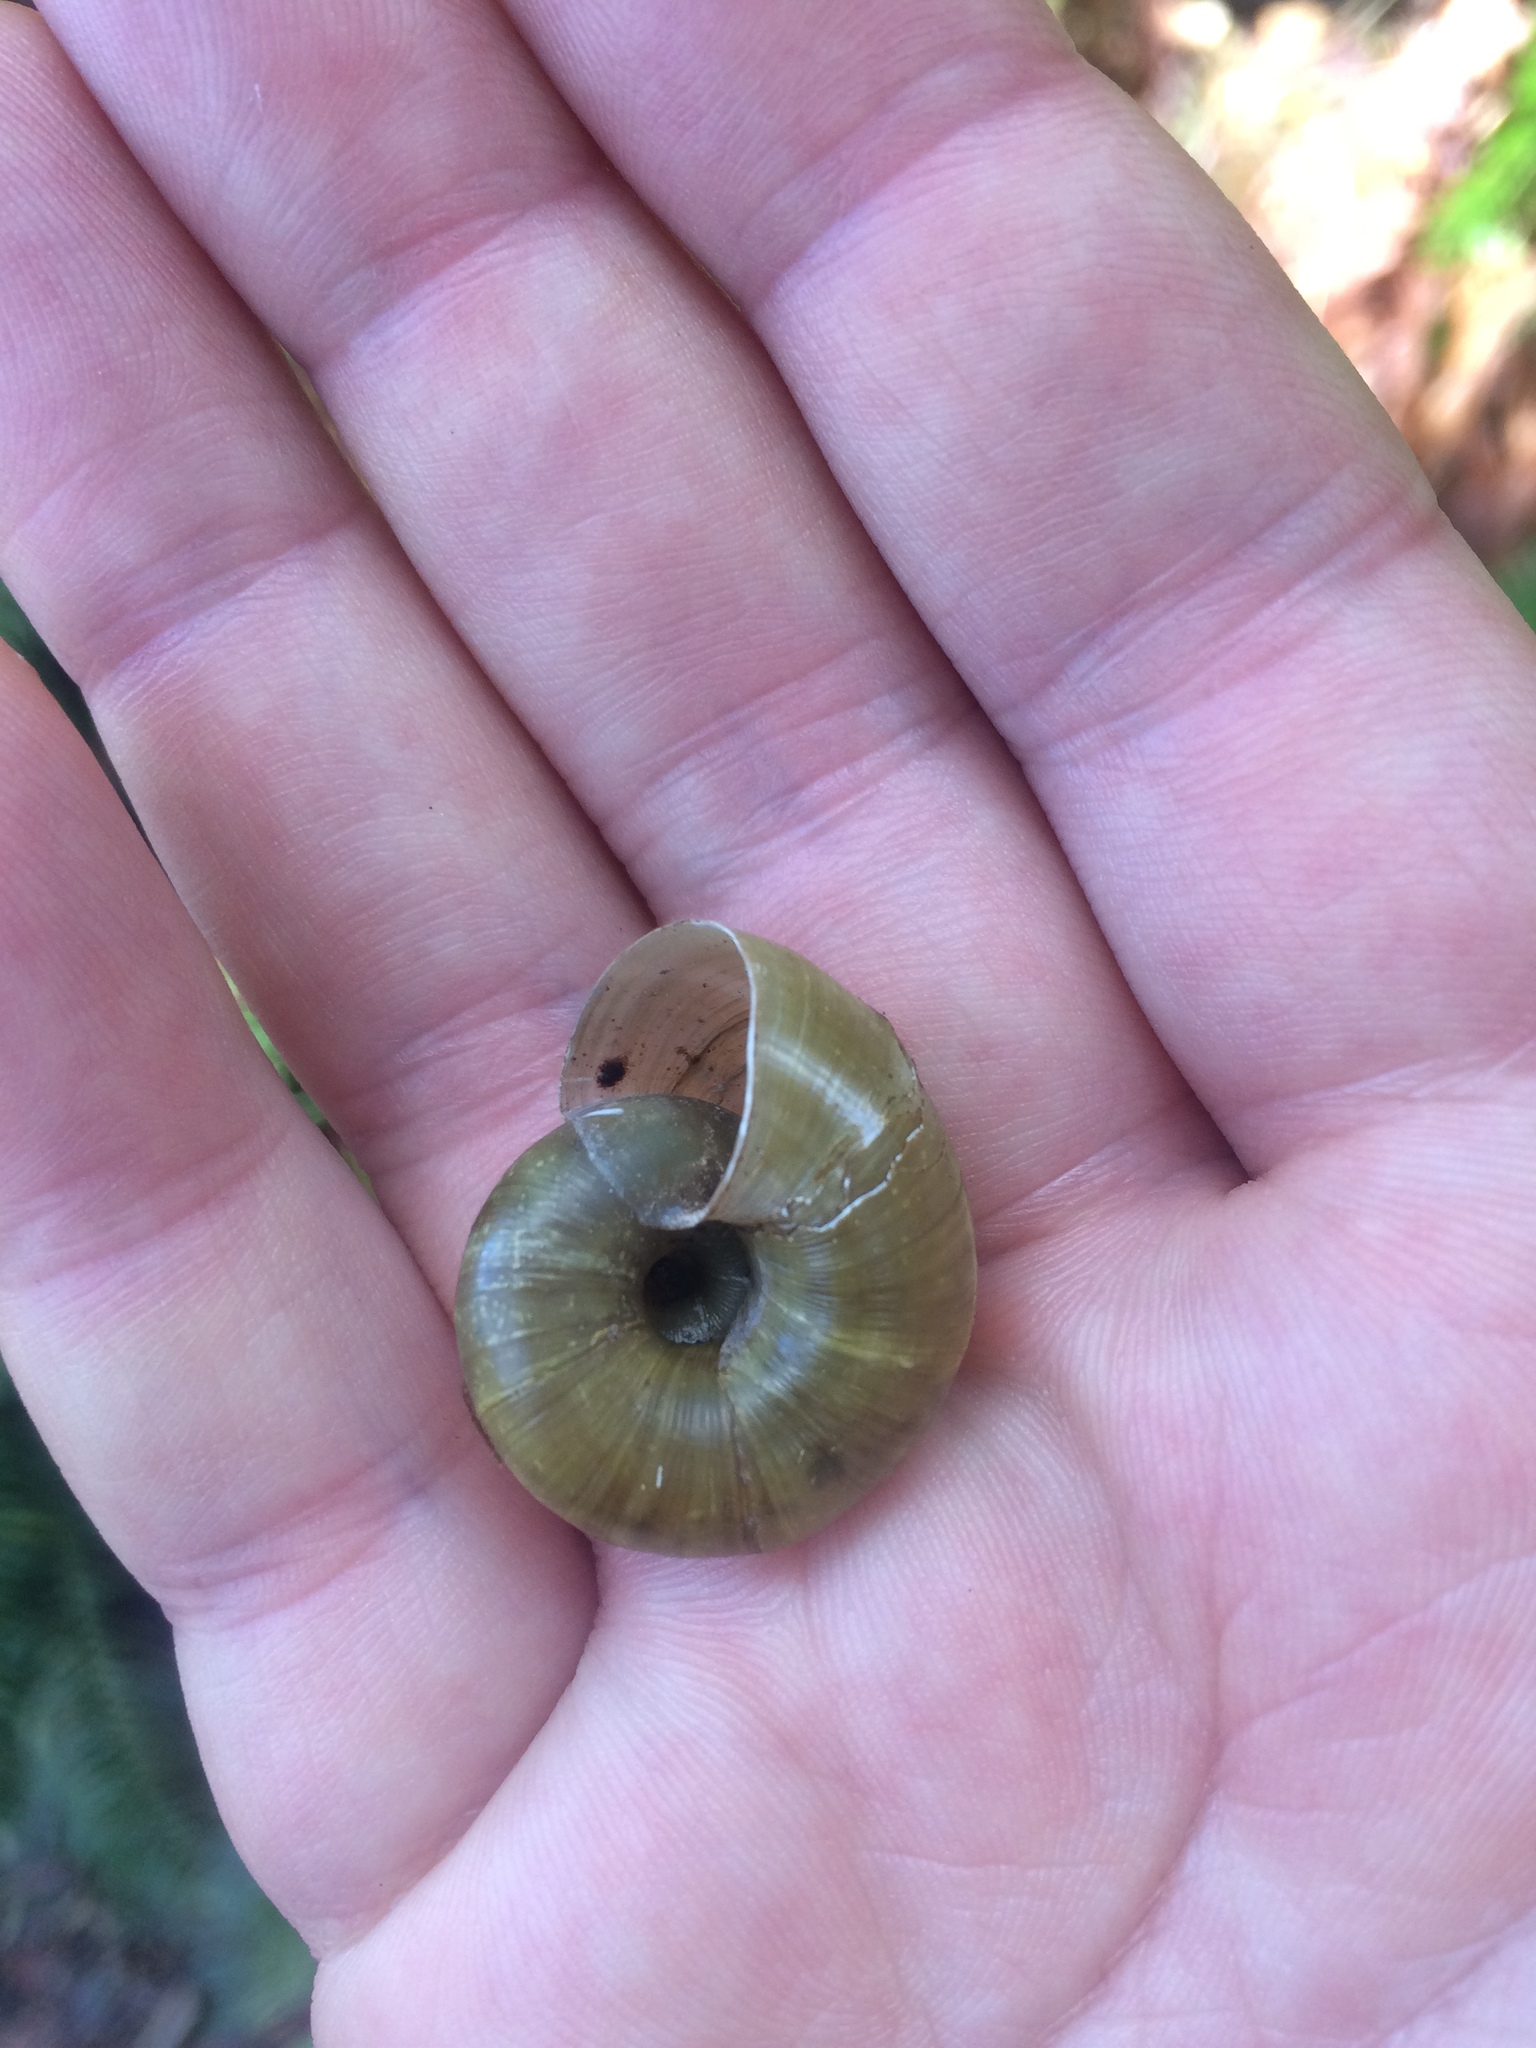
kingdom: Animalia
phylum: Mollusca
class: Gastropoda
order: Stylommatophora
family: Haplotrematidae
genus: Haplotrema
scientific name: Haplotrema vancouverense
